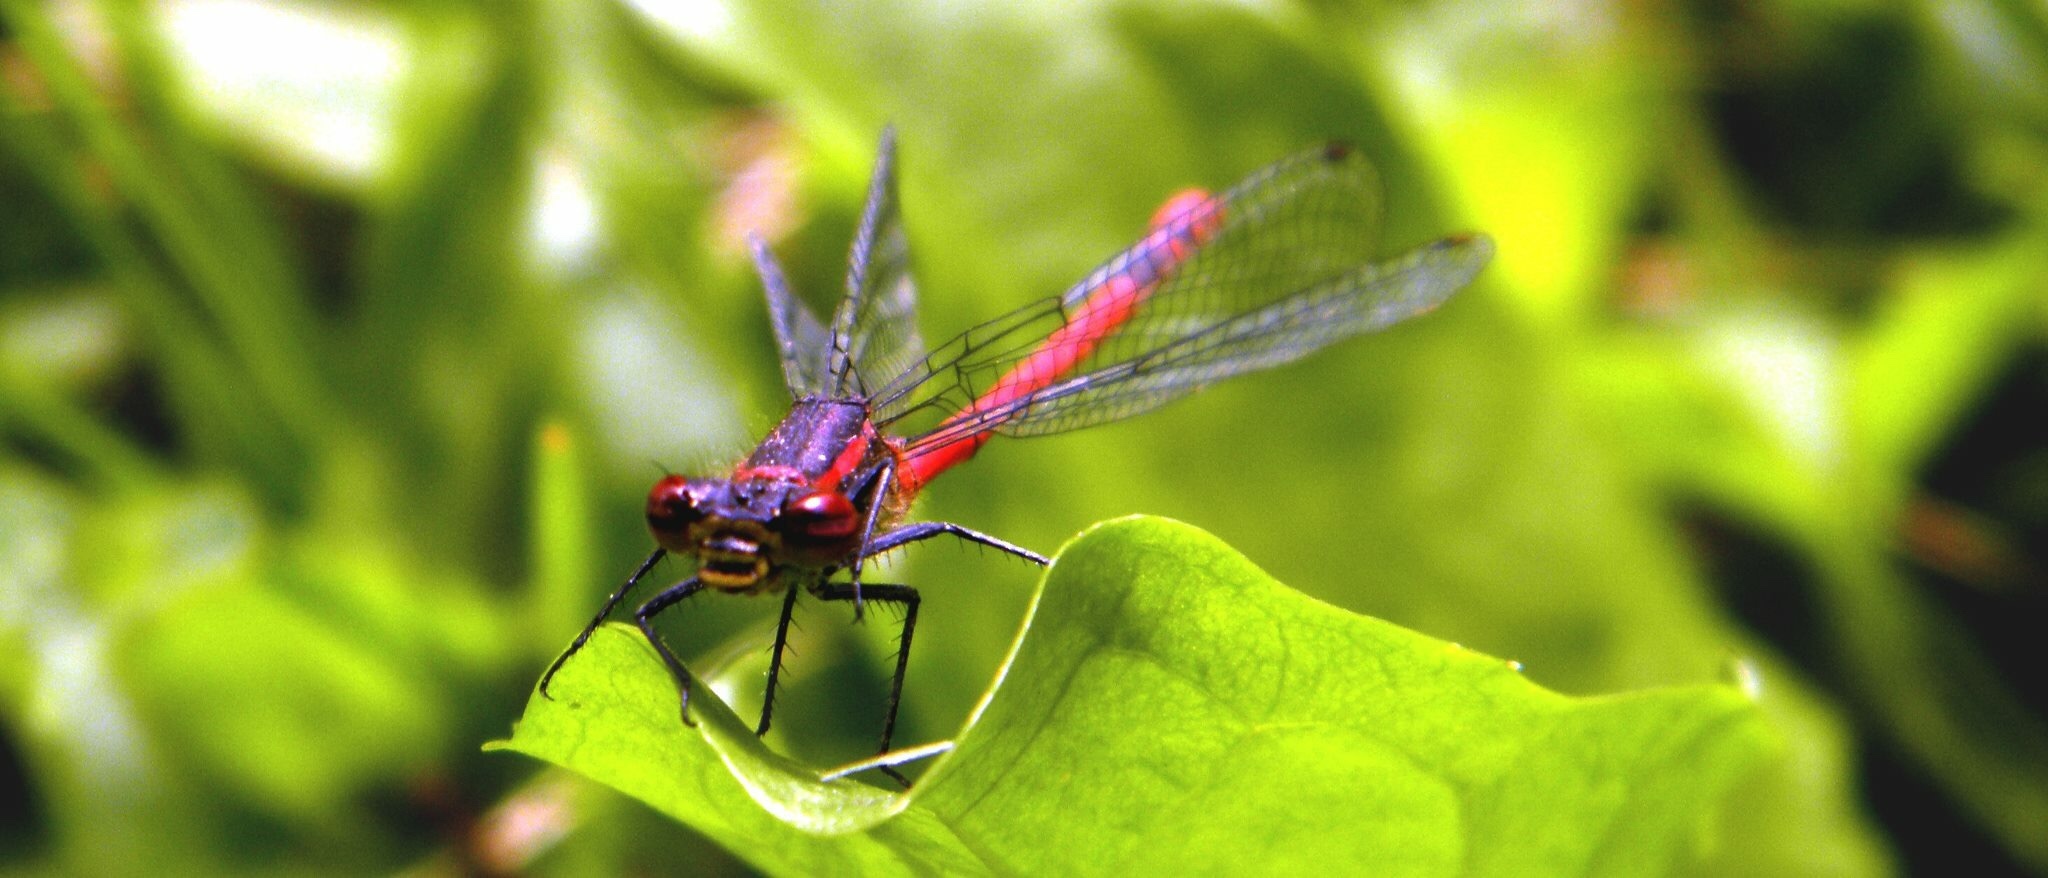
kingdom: Animalia
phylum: Arthropoda
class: Insecta
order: Odonata
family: Coenagrionidae
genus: Pyrrhosoma
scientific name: Pyrrhosoma nymphula
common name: Large red damsel
